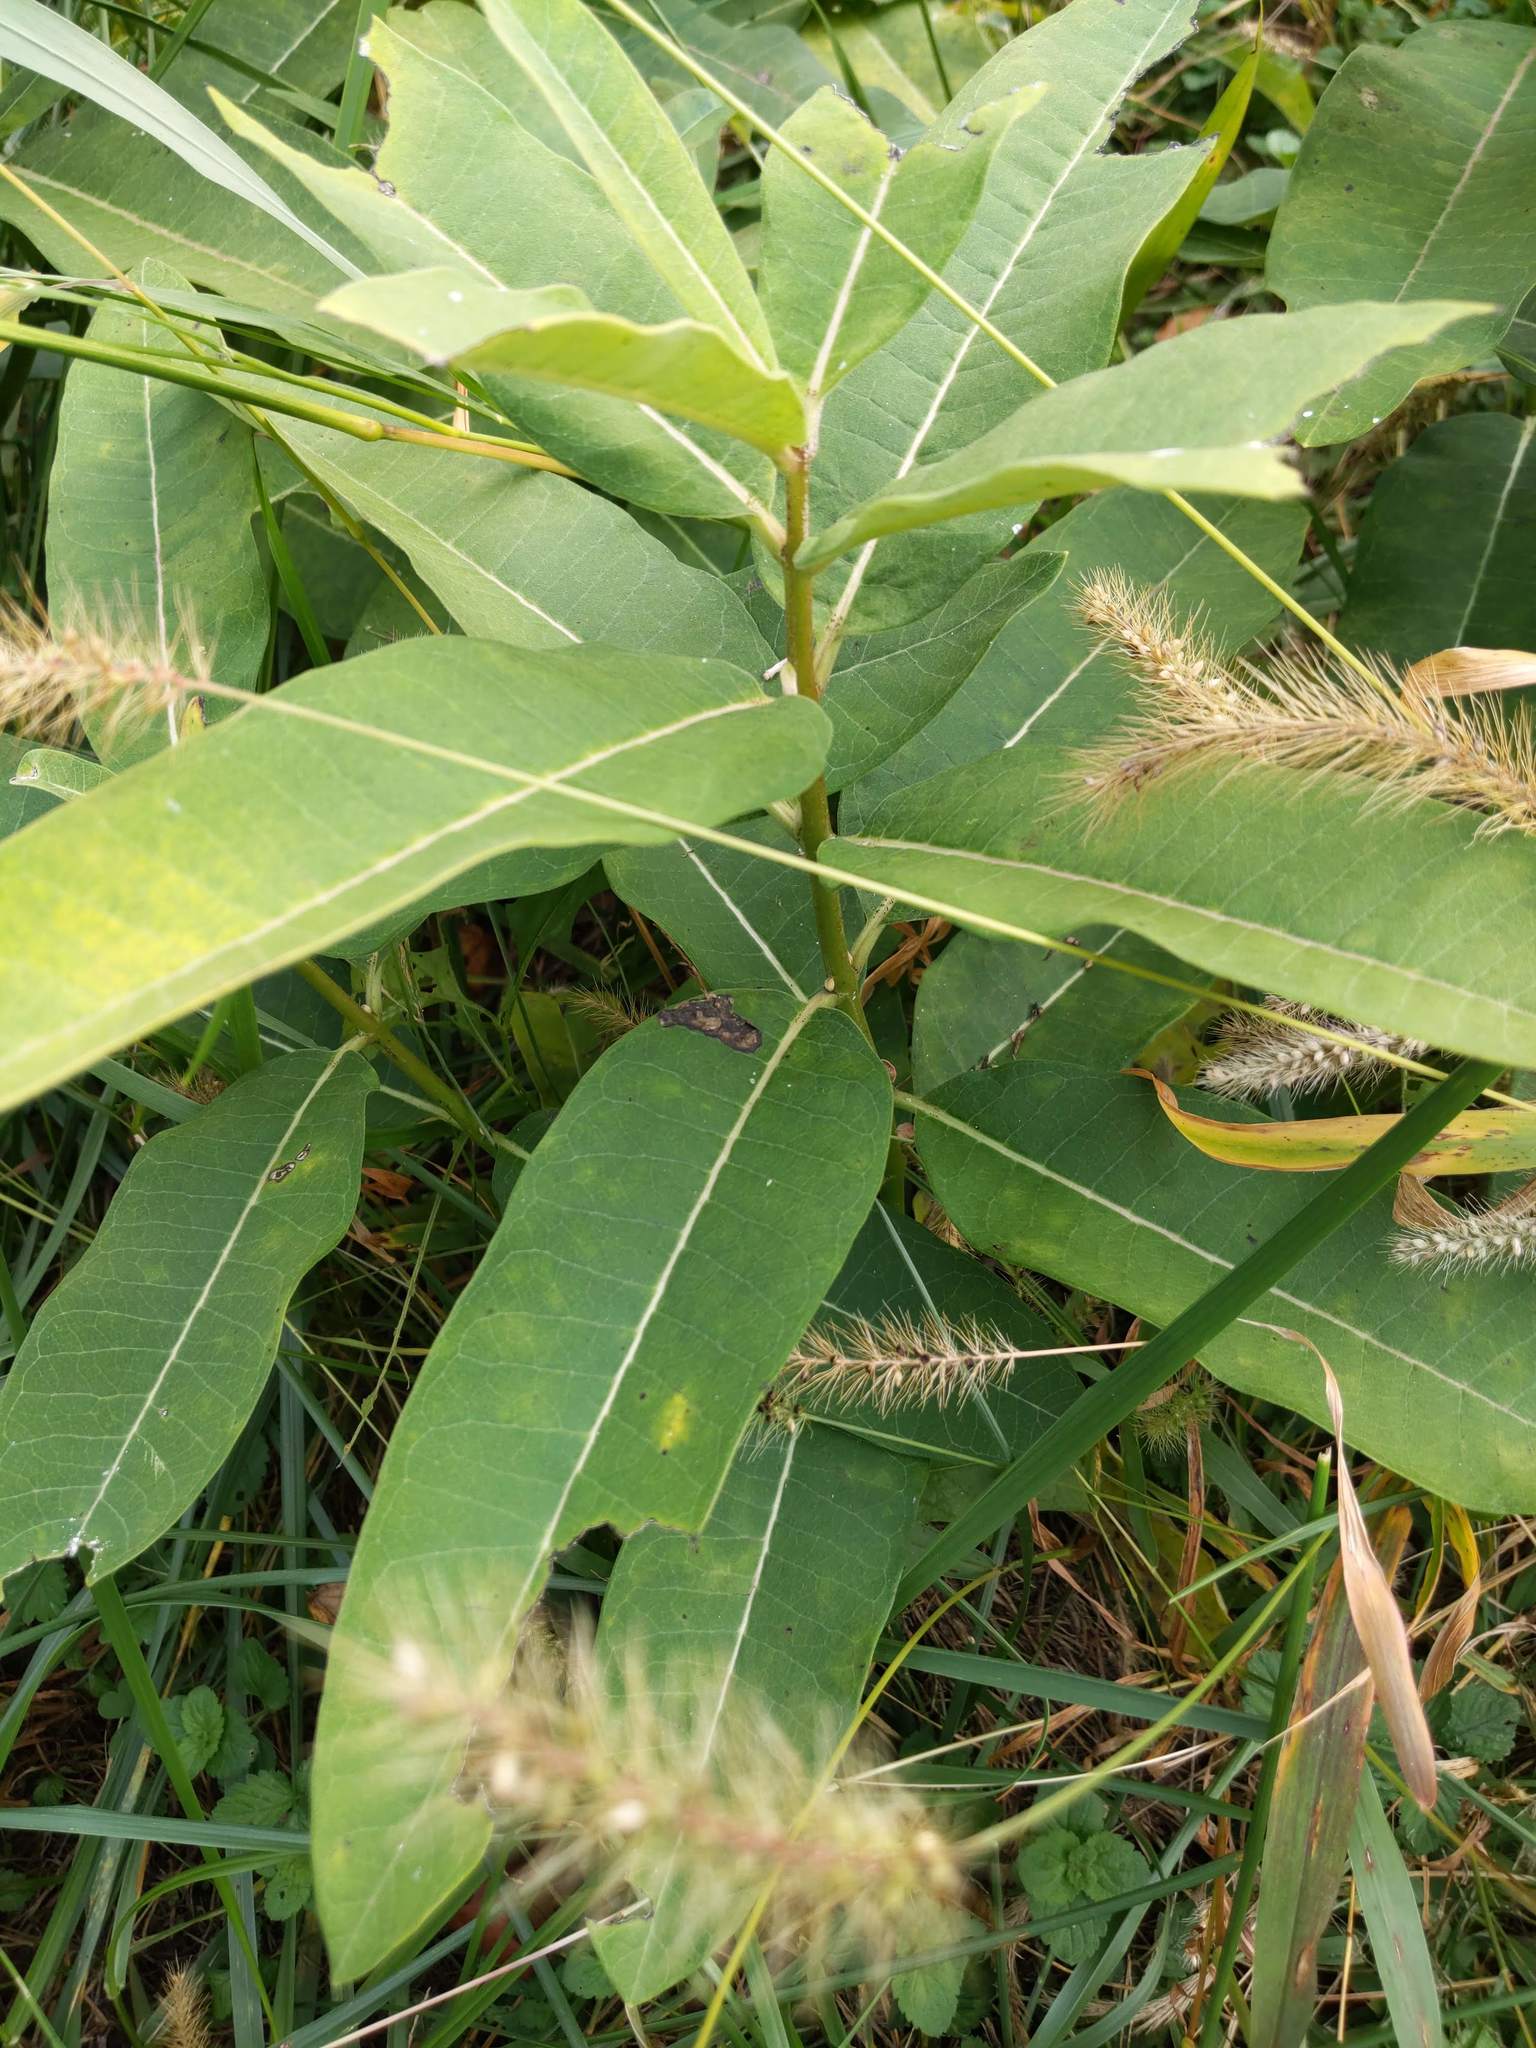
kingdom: Plantae
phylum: Tracheophyta
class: Magnoliopsida
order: Gentianales
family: Apocynaceae
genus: Asclepias
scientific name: Asclepias syriaca
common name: Common milkweed
